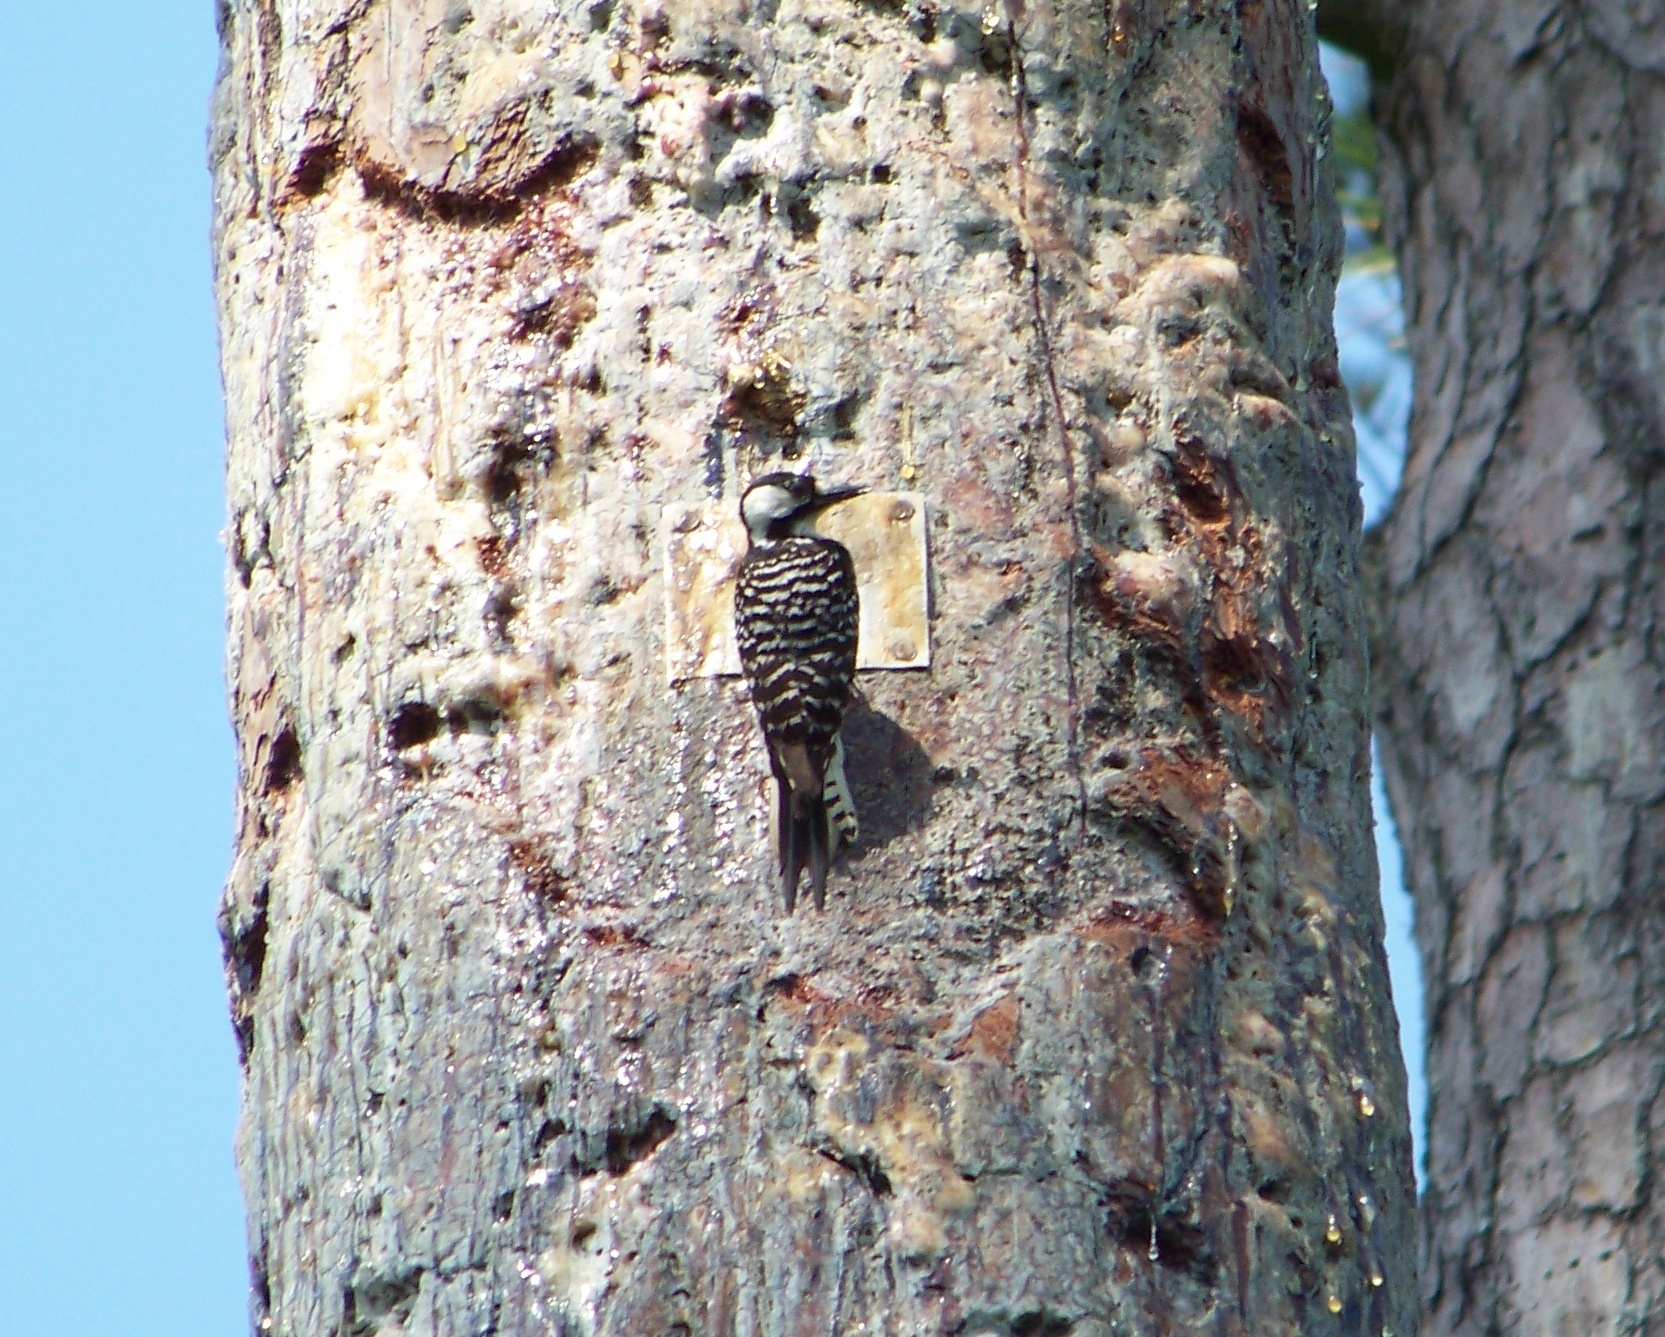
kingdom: Animalia
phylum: Chordata
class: Aves
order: Piciformes
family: Picidae
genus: Leuconotopicus
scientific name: Leuconotopicus borealis
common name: Red-cockaded woodpecker
